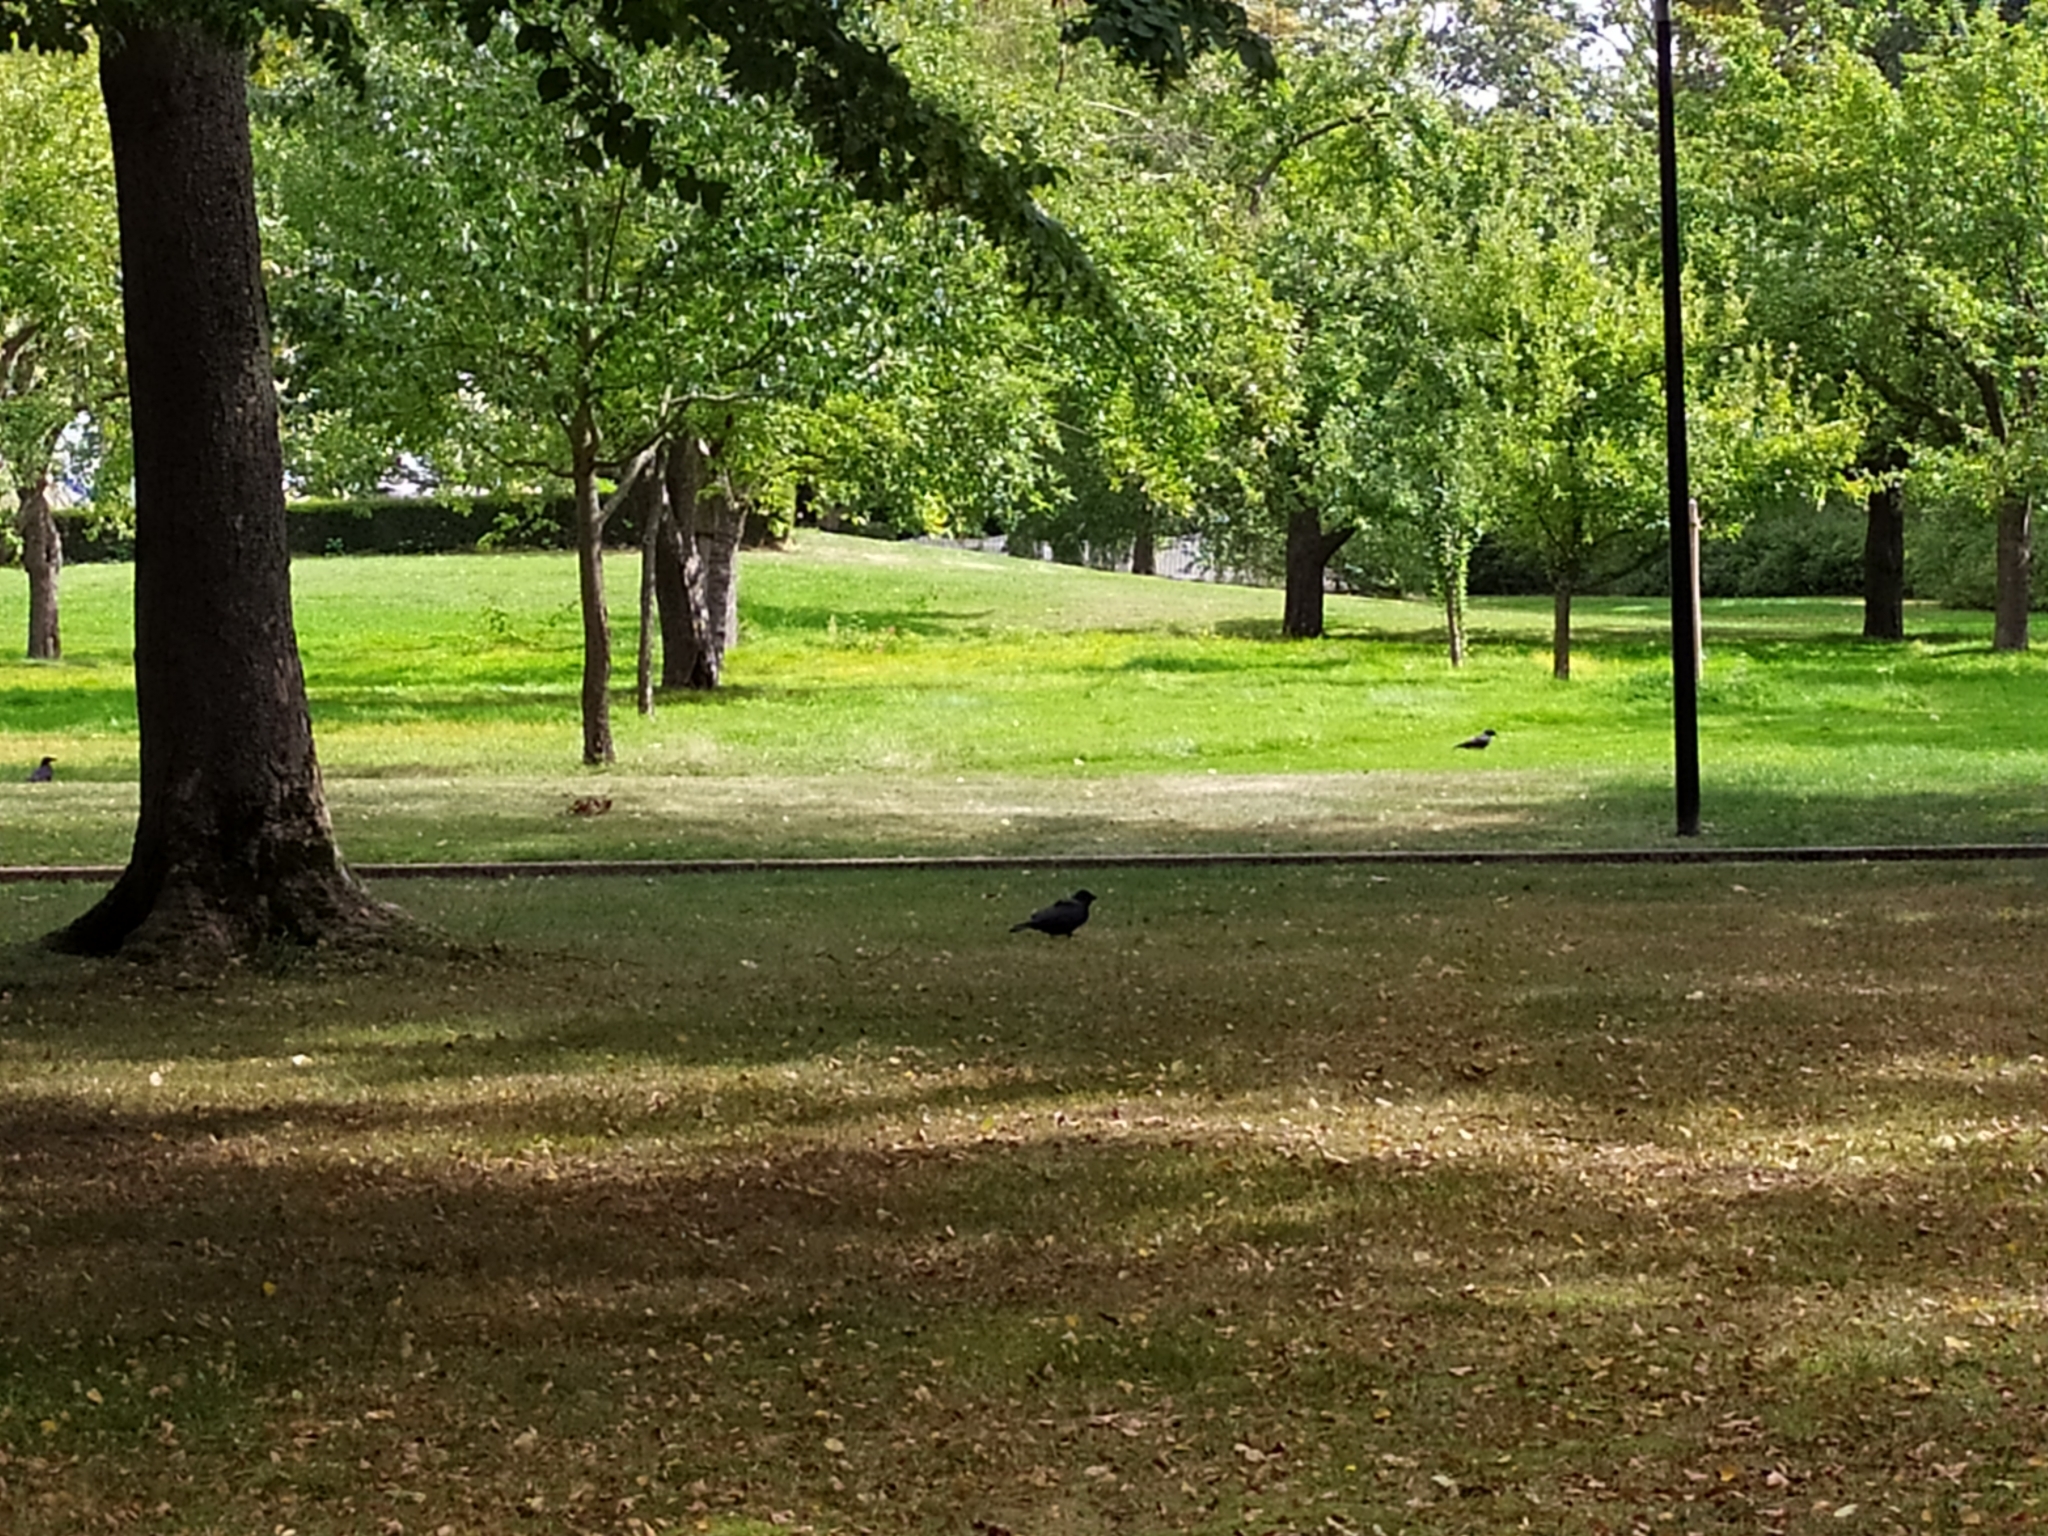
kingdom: Animalia
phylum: Chordata
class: Aves
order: Passeriformes
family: Corvidae
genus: Corvus
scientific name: Corvus corone
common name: Carrion crow
